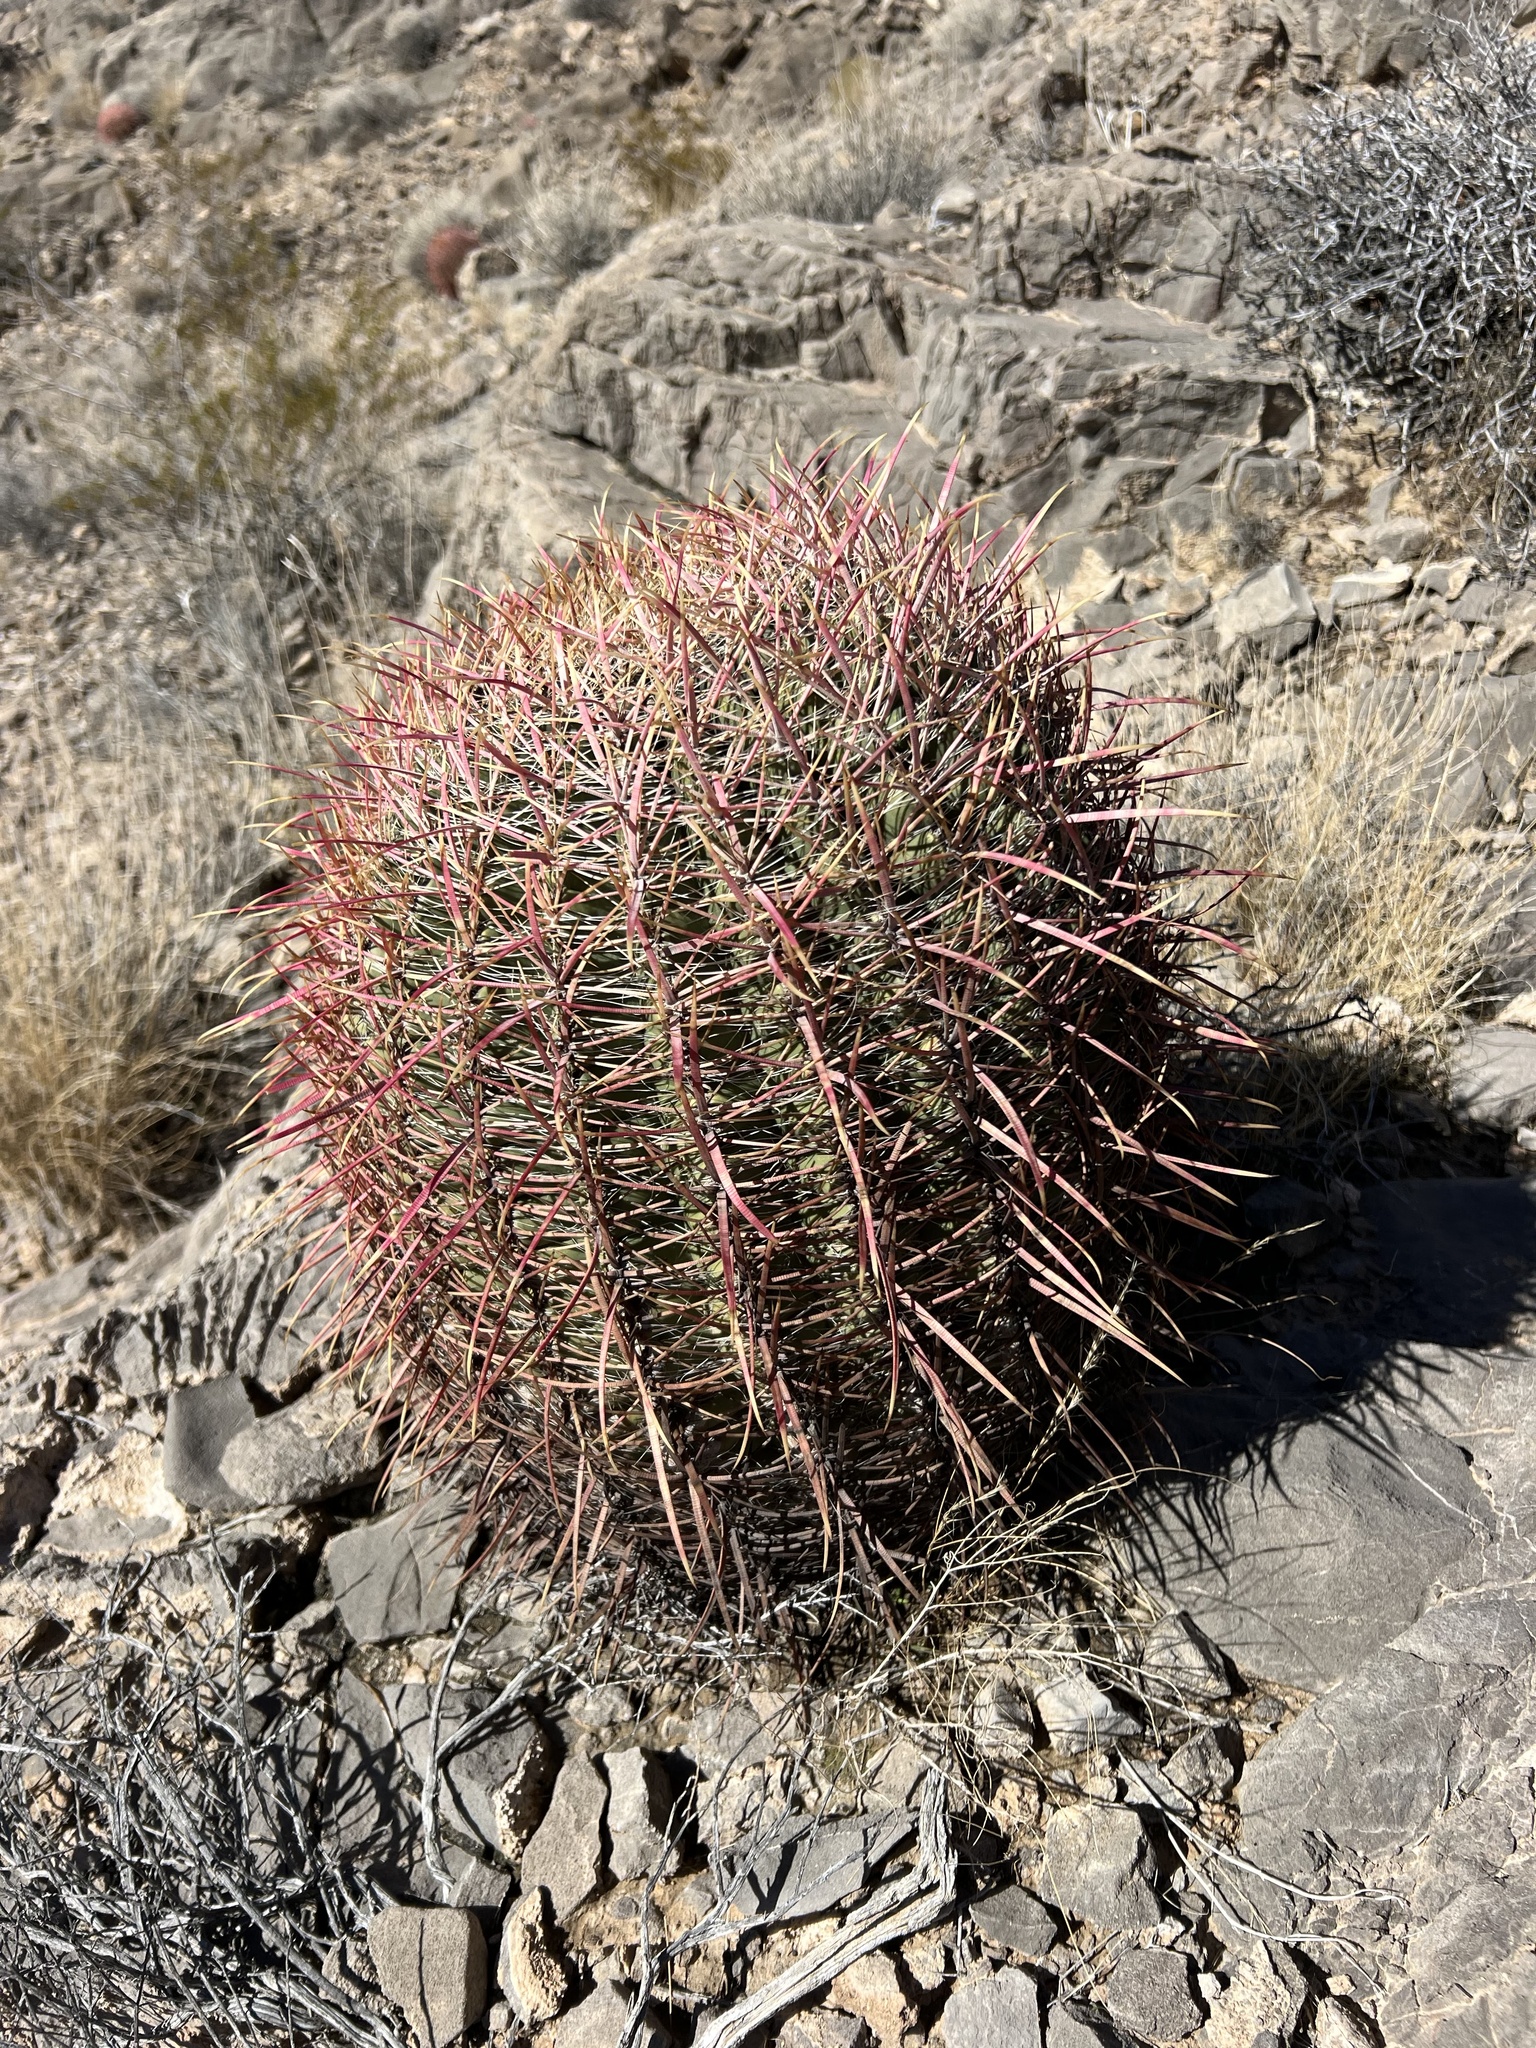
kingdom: Plantae
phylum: Tracheophyta
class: Magnoliopsida
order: Caryophyllales
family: Cactaceae
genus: Ferocactus
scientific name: Ferocactus cylindraceus
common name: California barrel cactus
